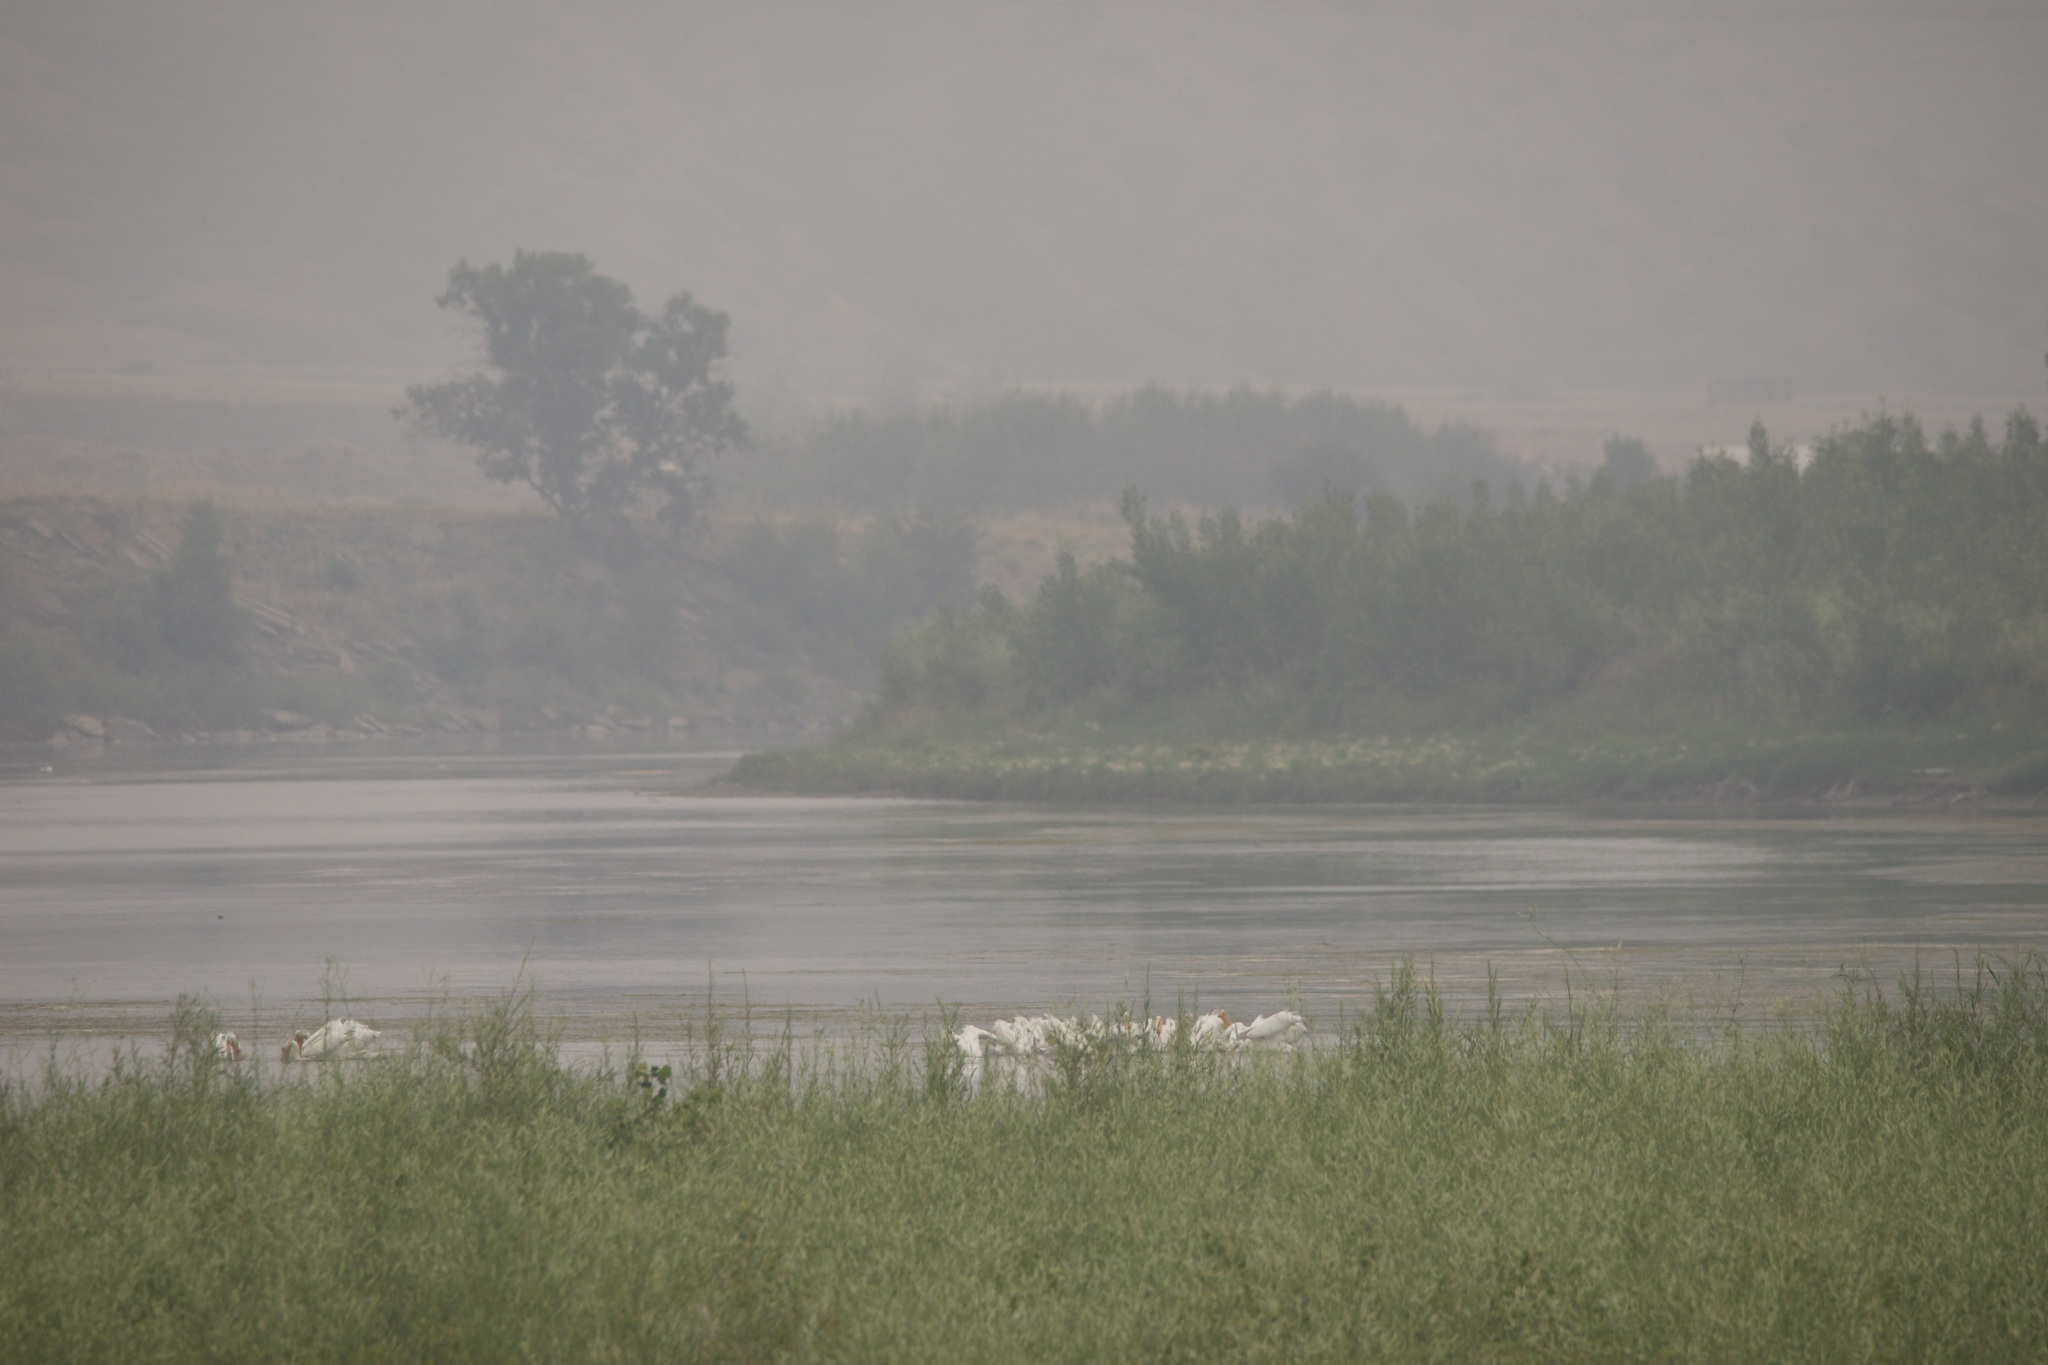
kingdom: Animalia
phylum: Chordata
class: Aves
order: Pelecaniformes
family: Pelecanidae
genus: Pelecanus
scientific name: Pelecanus erythrorhynchos
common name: American white pelican
